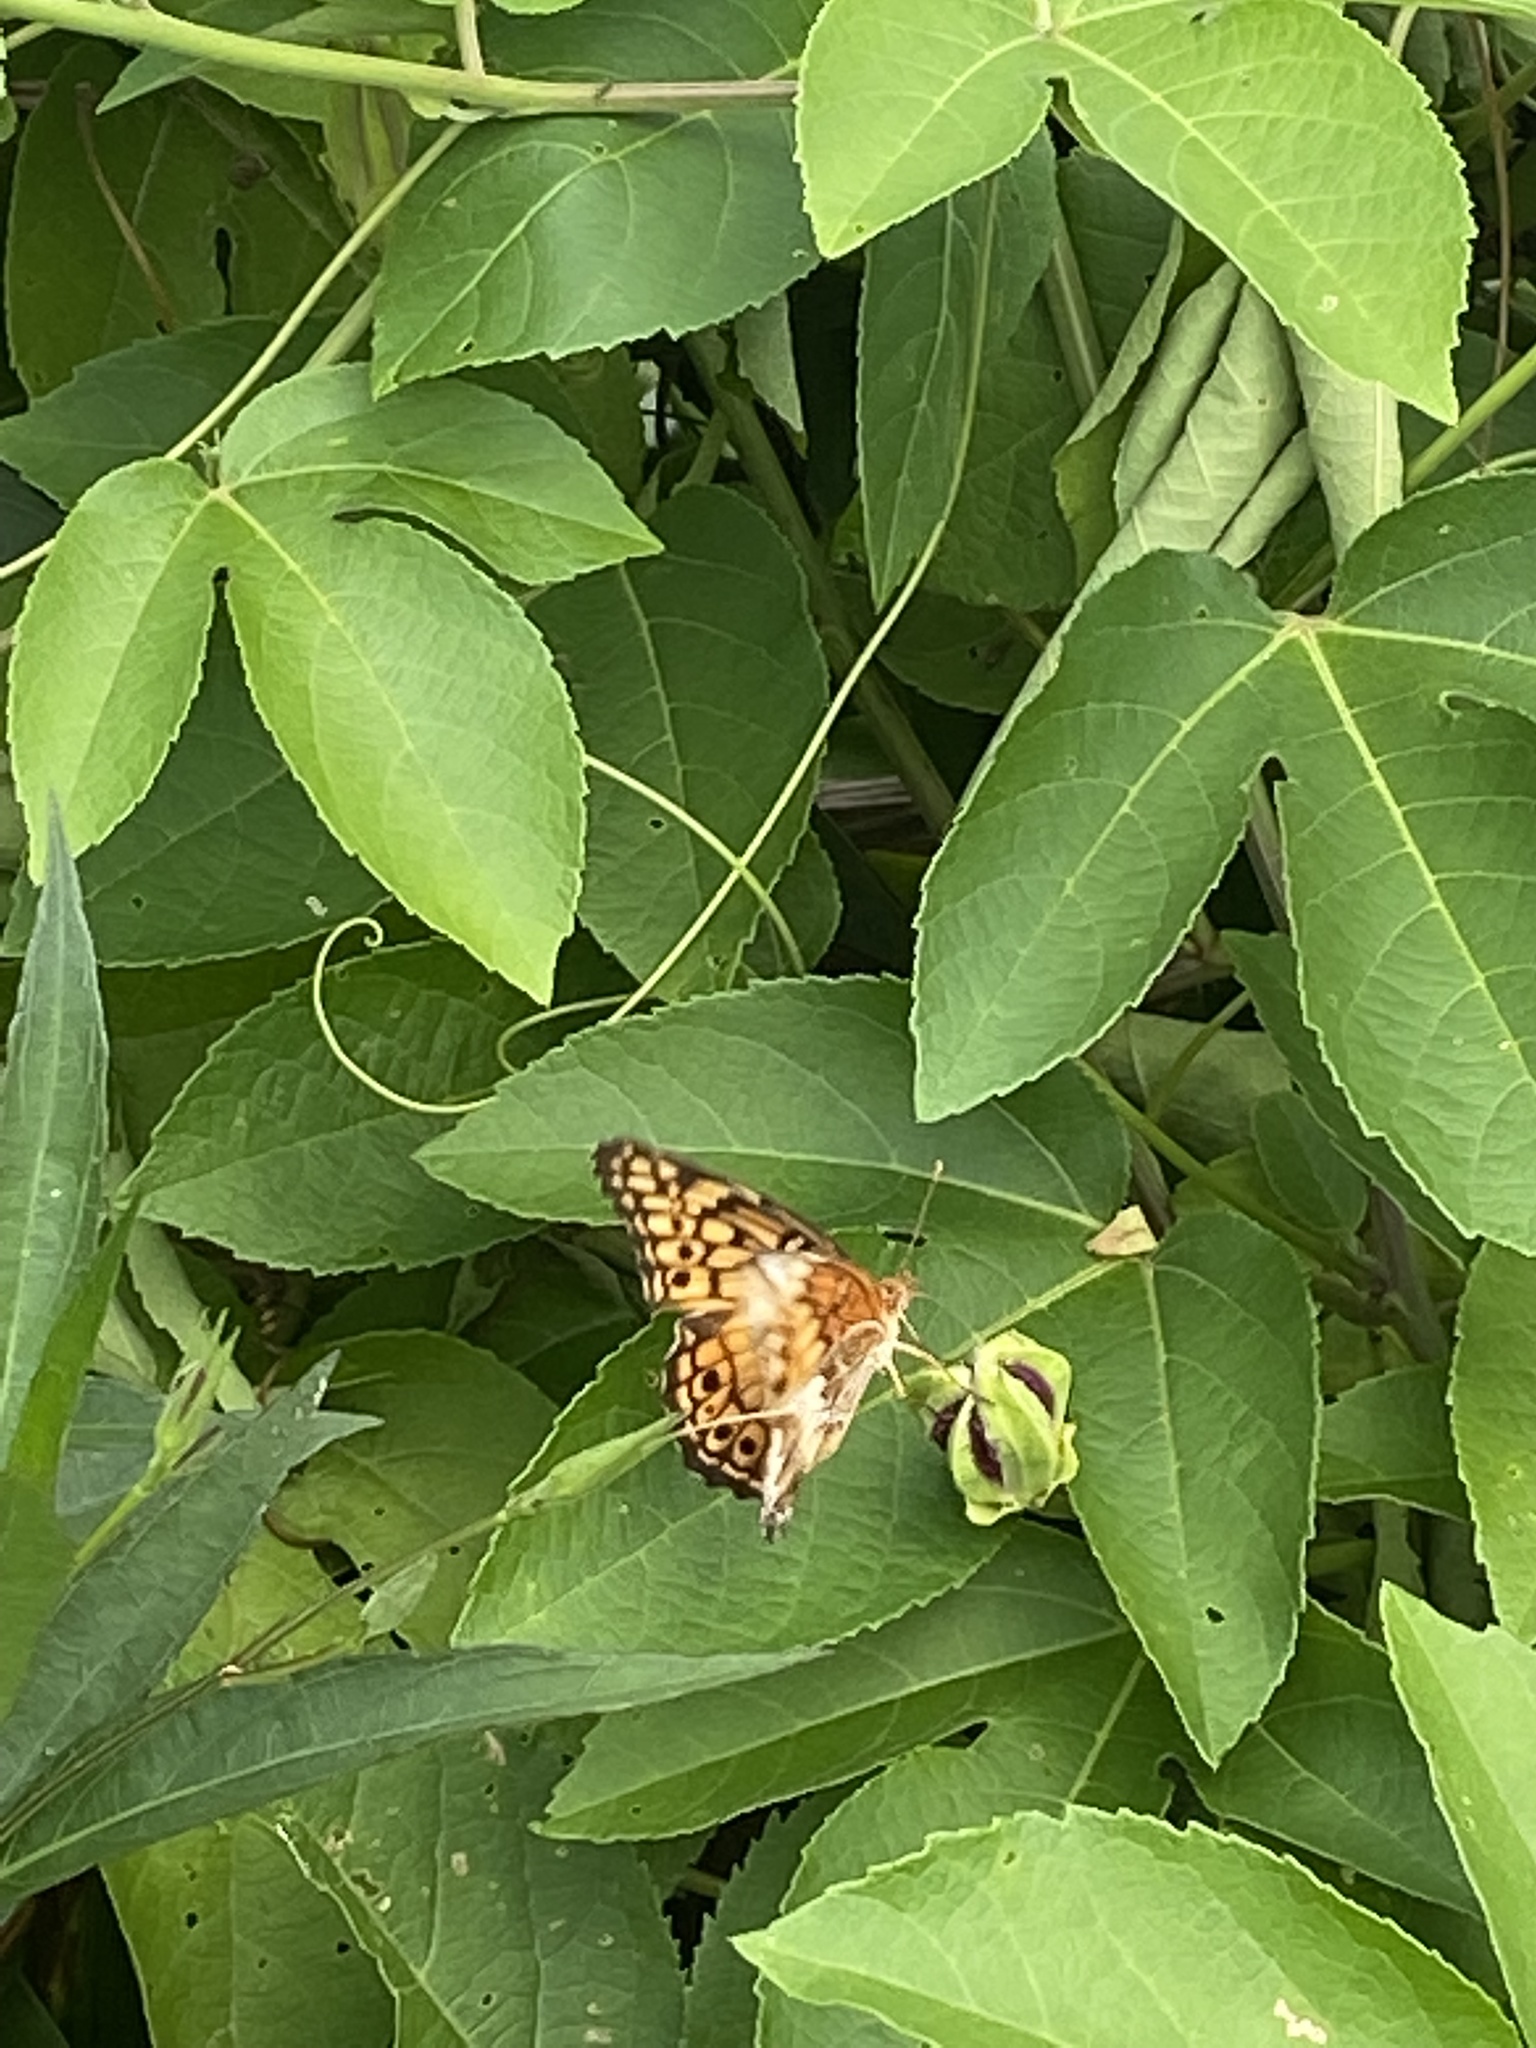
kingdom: Animalia
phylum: Arthropoda
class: Insecta
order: Lepidoptera
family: Nymphalidae
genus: Euptoieta
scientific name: Euptoieta claudia
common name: Variegated fritillary
